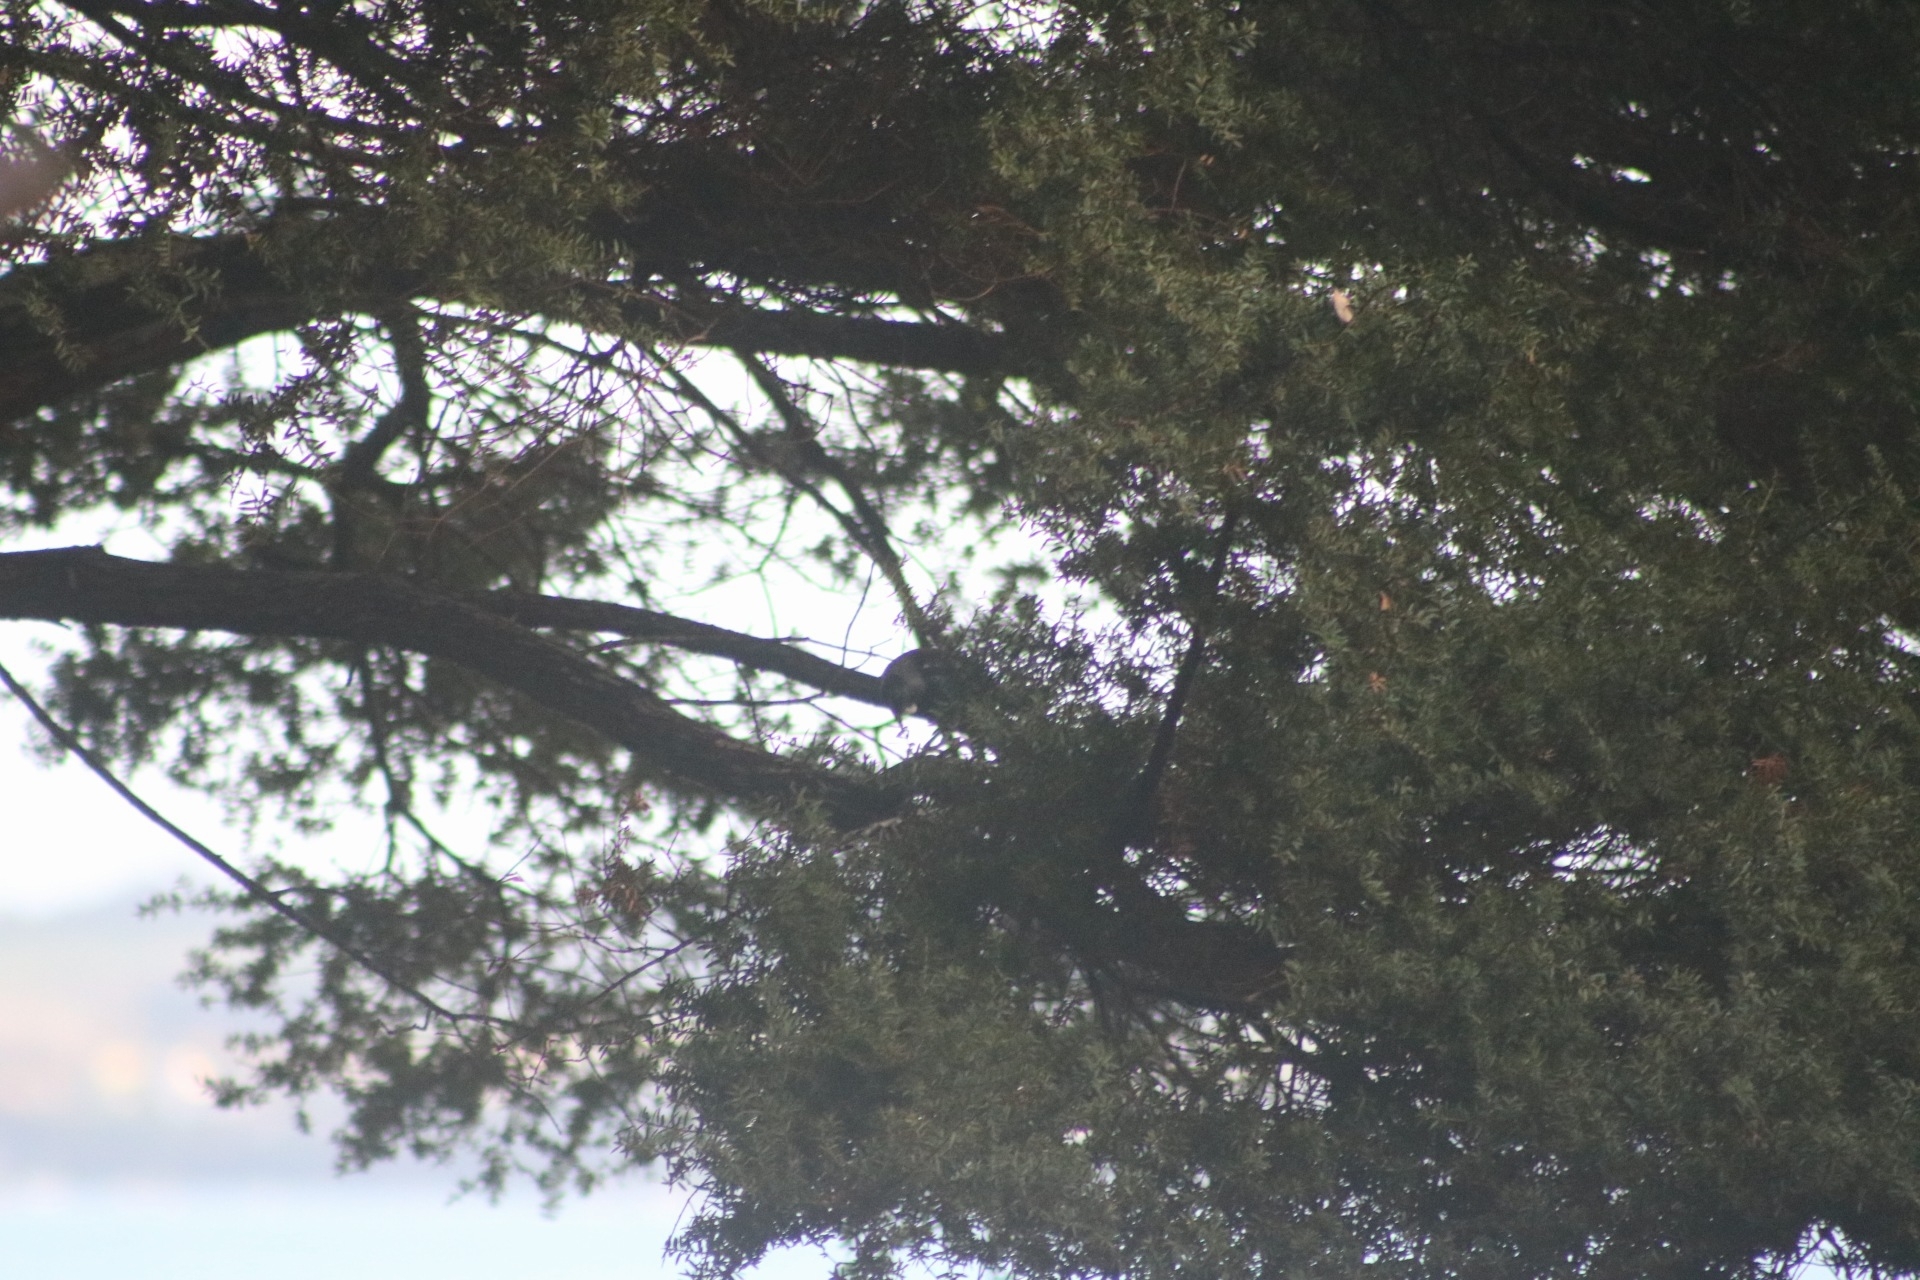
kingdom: Animalia
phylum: Chordata
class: Aves
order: Passeriformes
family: Meliphagidae
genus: Prosthemadera
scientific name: Prosthemadera novaeseelandiae
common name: Tui
